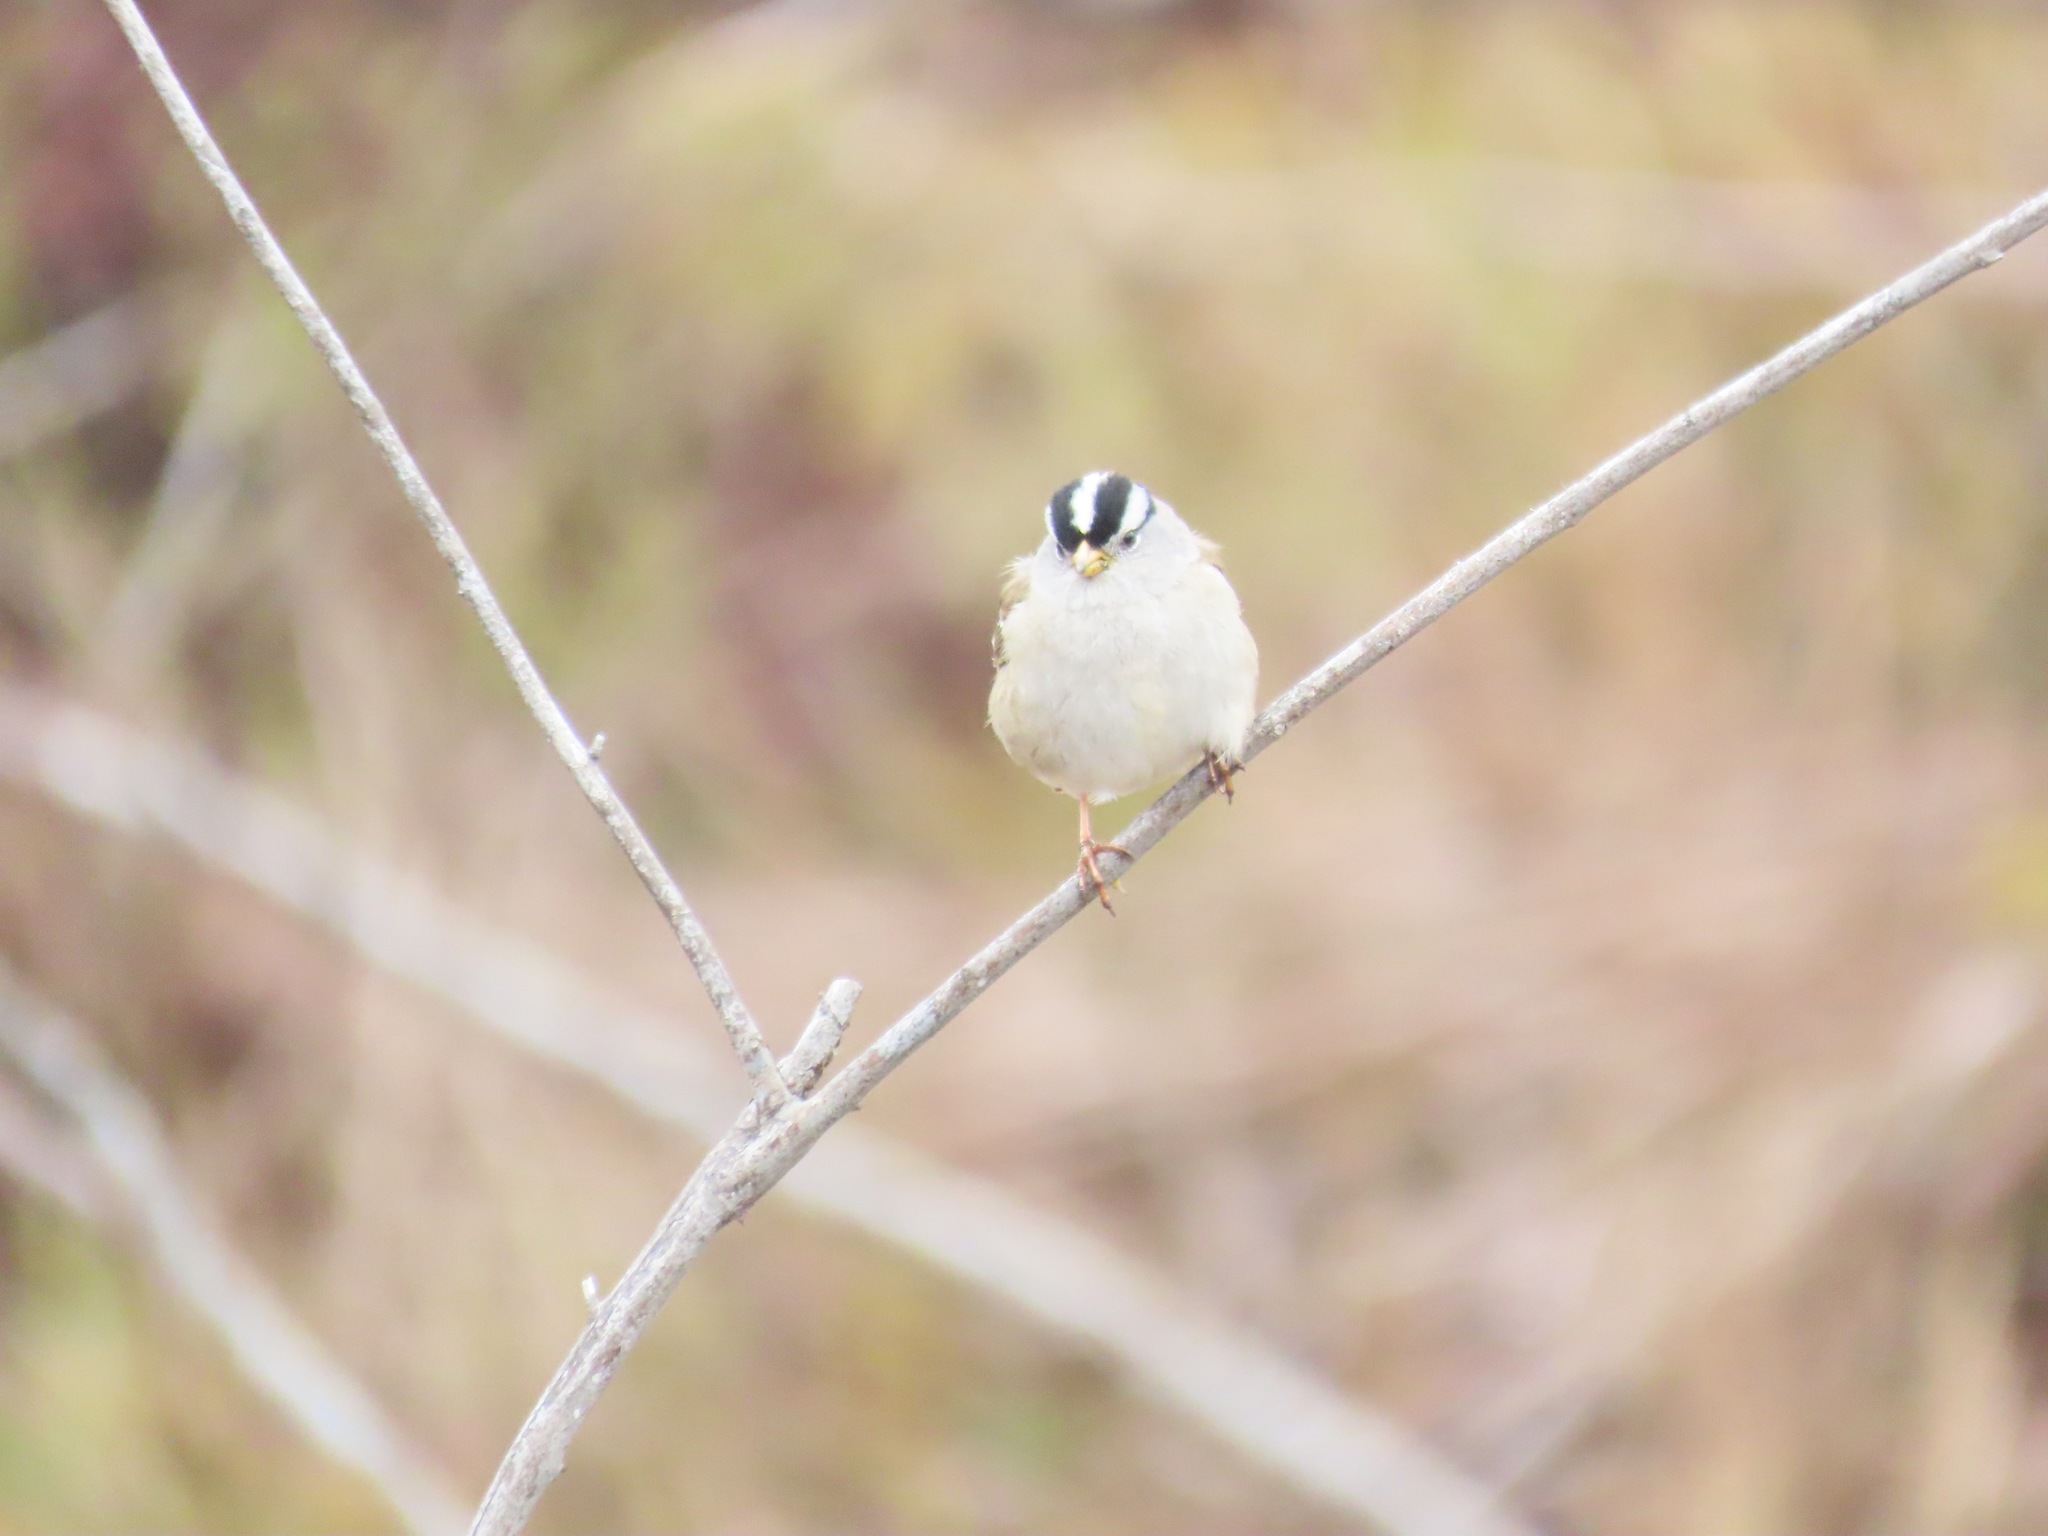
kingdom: Animalia
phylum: Chordata
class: Aves
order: Passeriformes
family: Passerellidae
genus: Zonotrichia
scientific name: Zonotrichia leucophrys
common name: White-crowned sparrow
